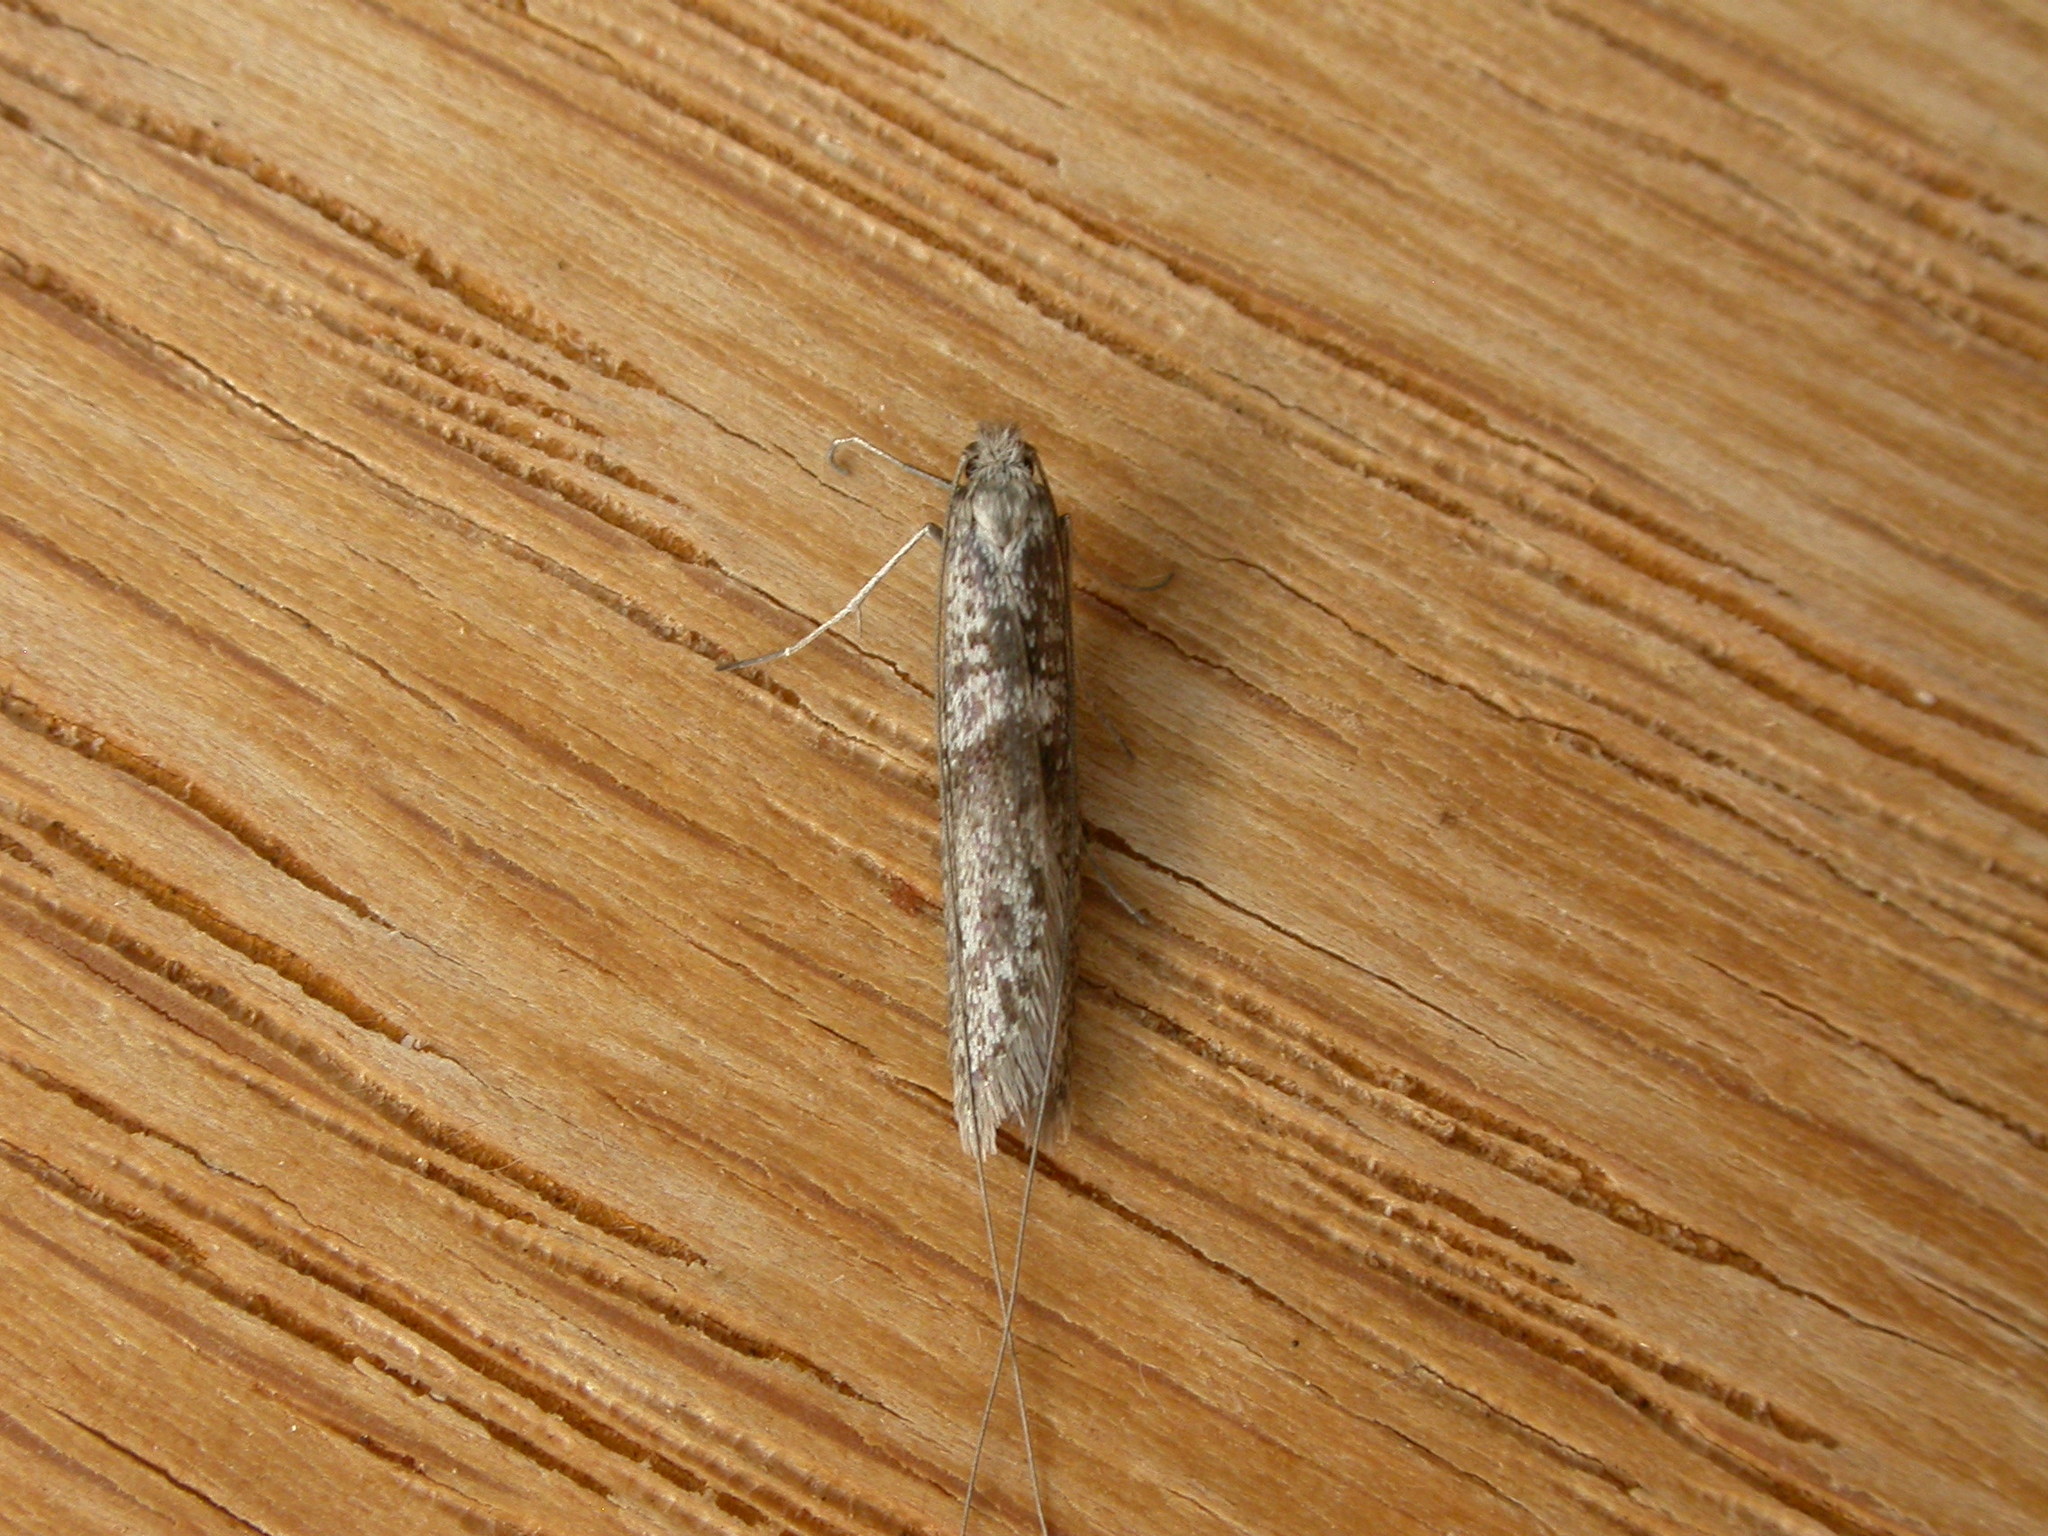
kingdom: Animalia
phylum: Arthropoda
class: Insecta
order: Lepidoptera
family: Adelidae
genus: Ceromitia
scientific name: Ceromitia iolampra
